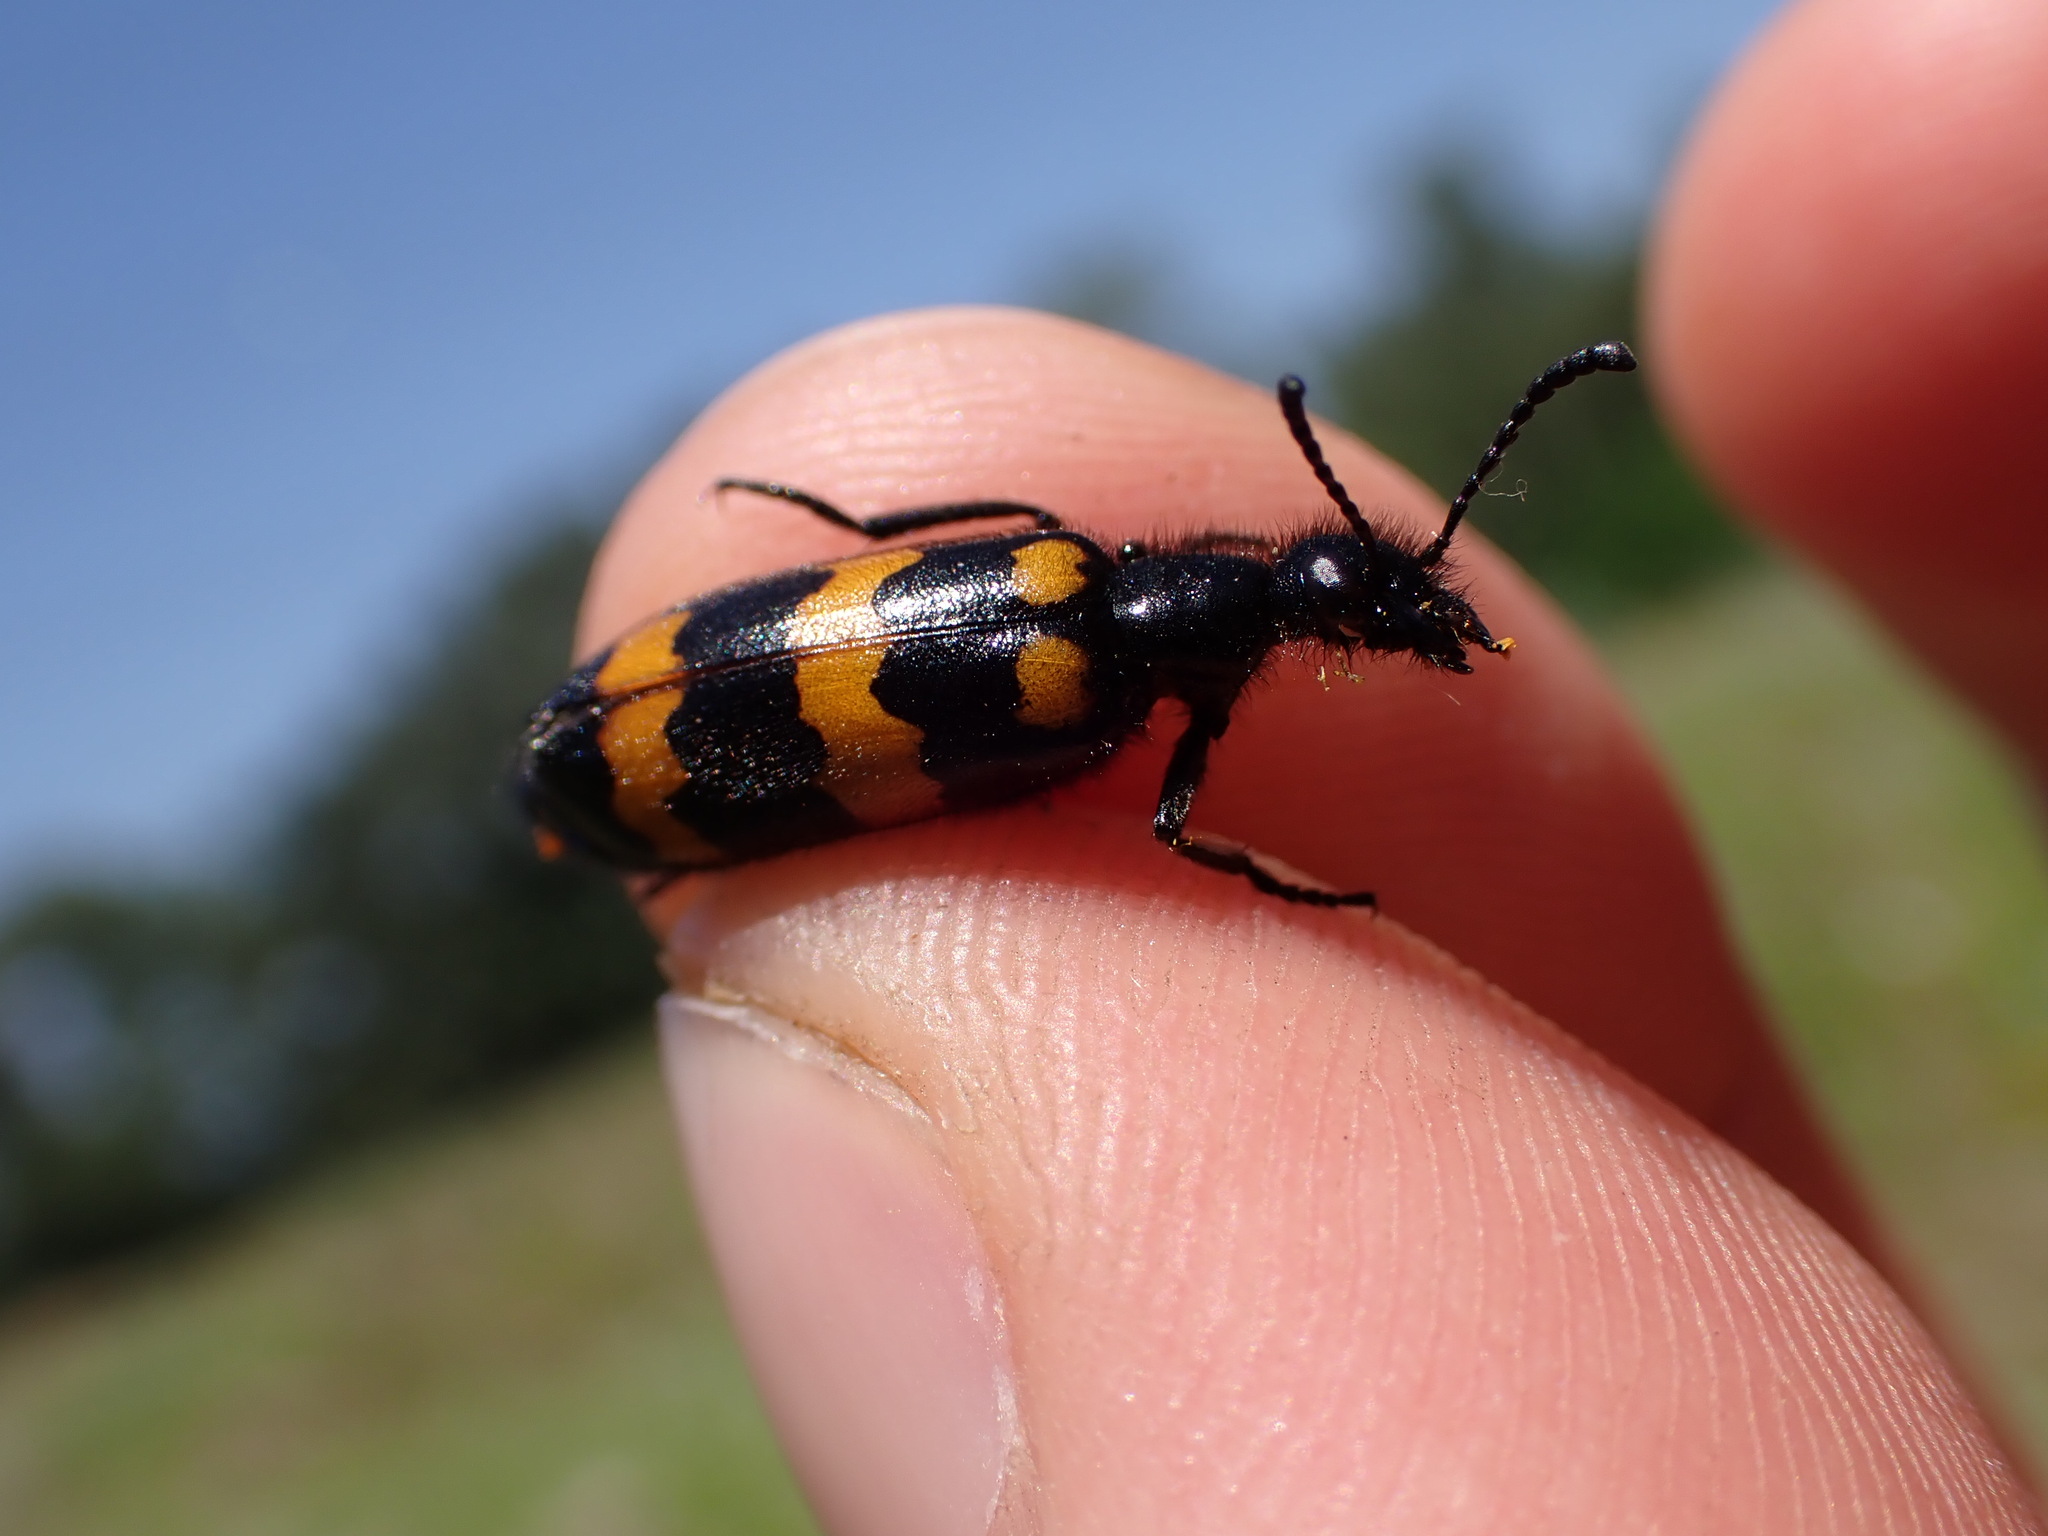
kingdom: Animalia
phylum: Arthropoda
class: Insecta
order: Coleoptera
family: Meloidae
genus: Mylabris
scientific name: Mylabris variabilis
